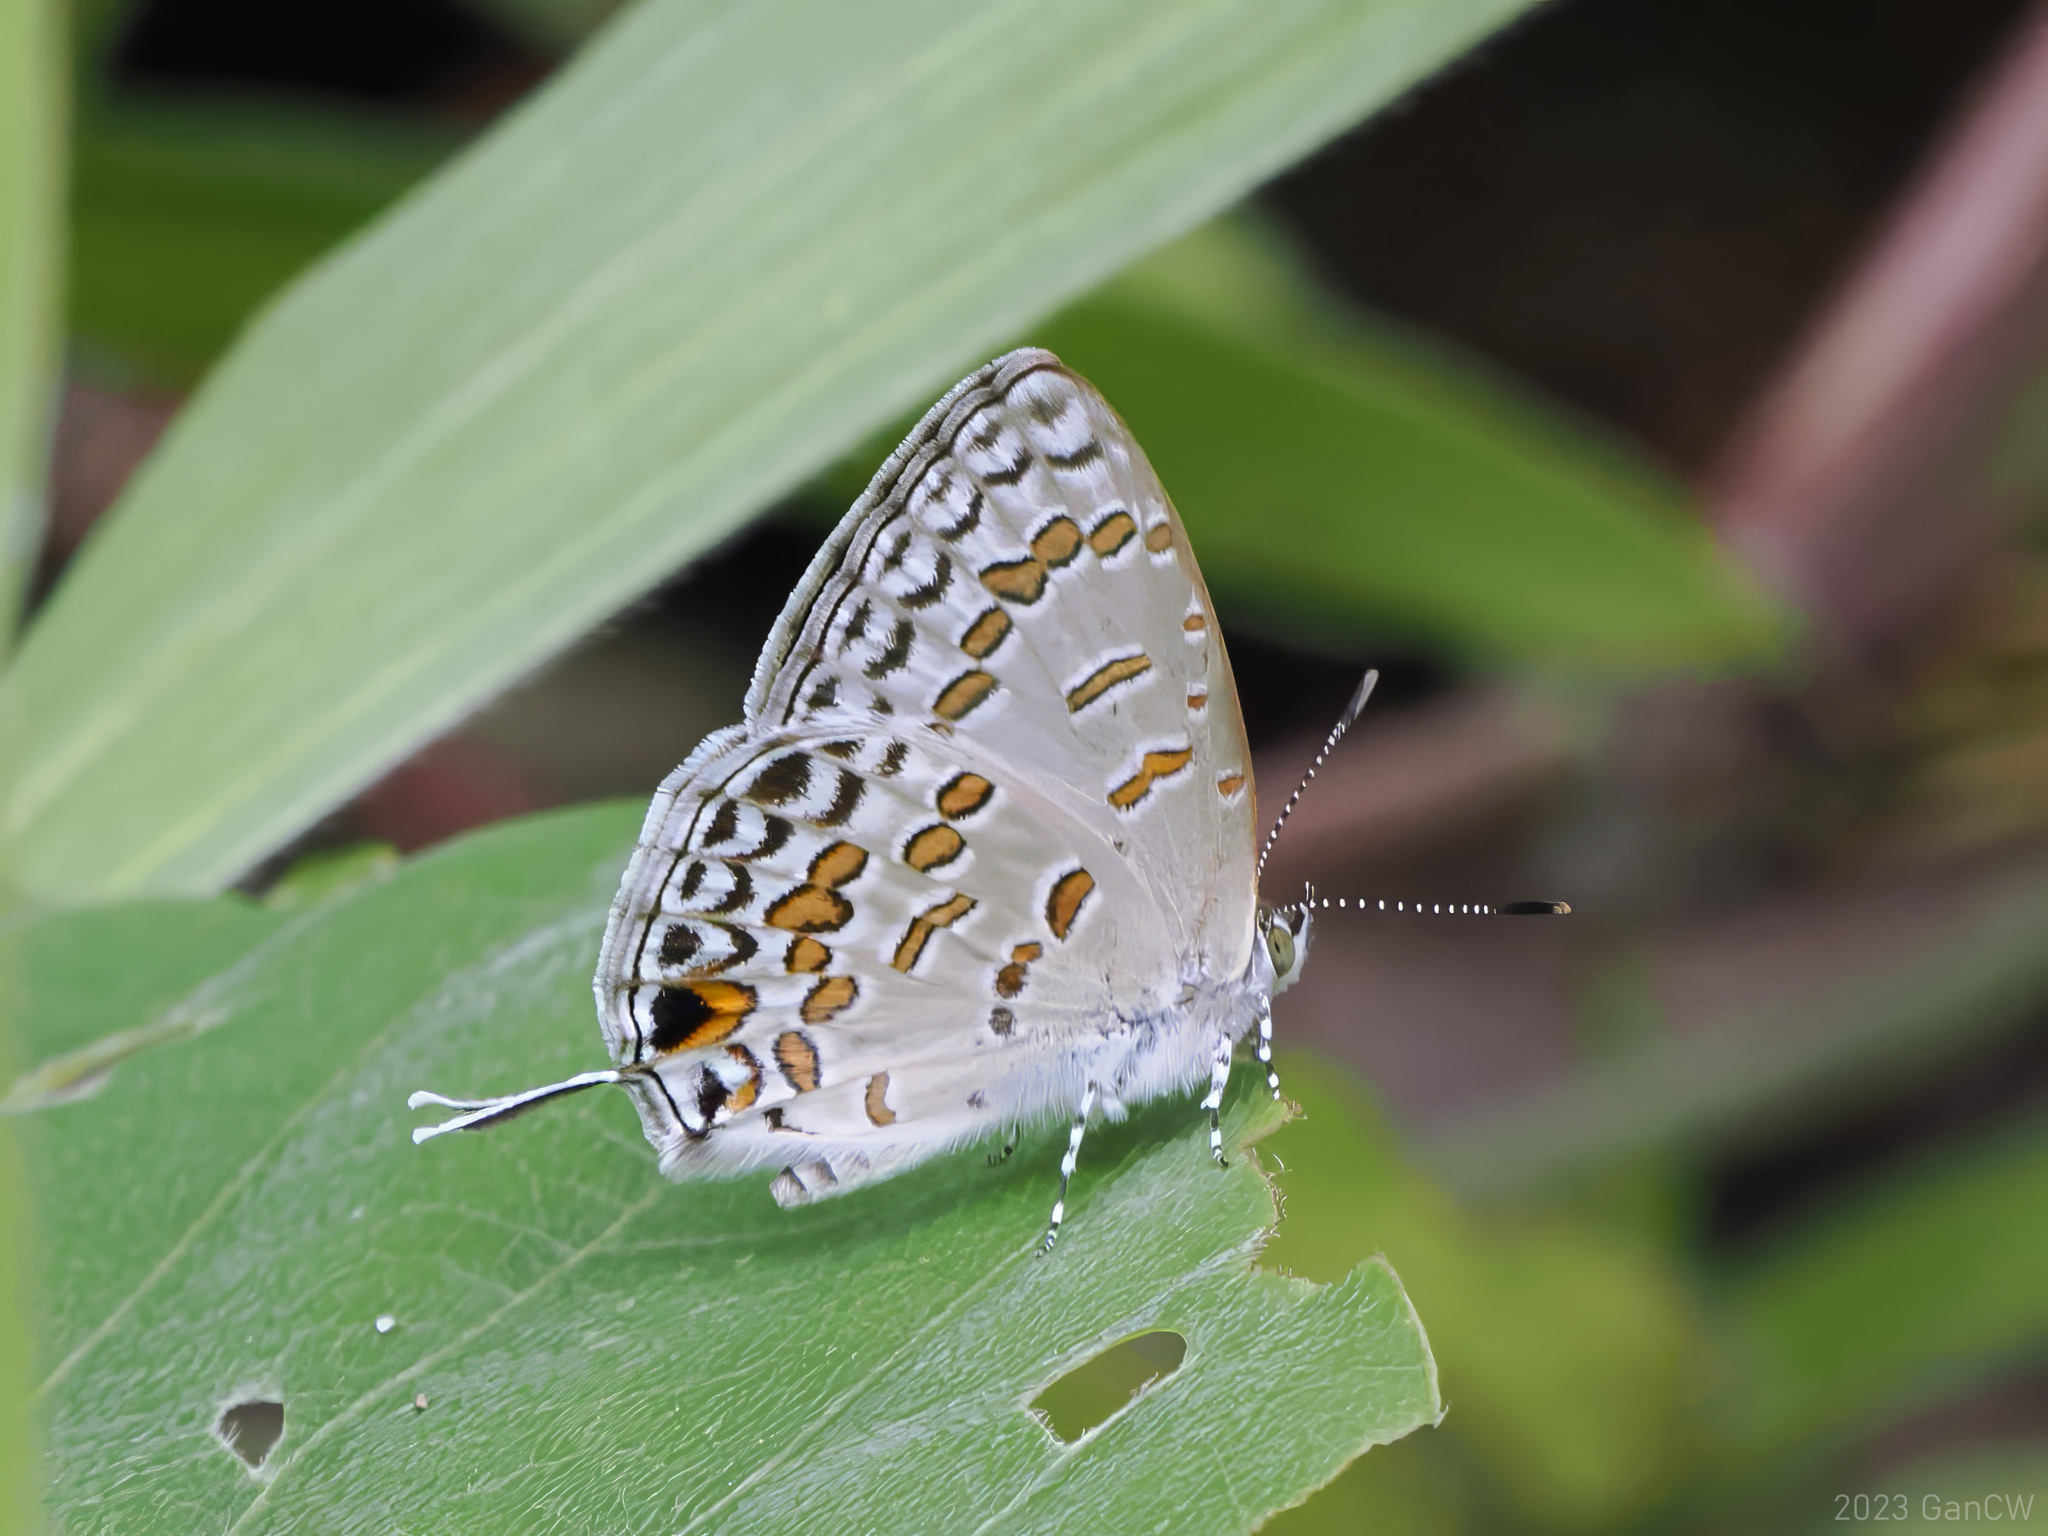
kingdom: Animalia
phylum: Arthropoda
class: Insecta
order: Lepidoptera
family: Lycaenidae
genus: Catopyrops
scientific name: Catopyrops rita
